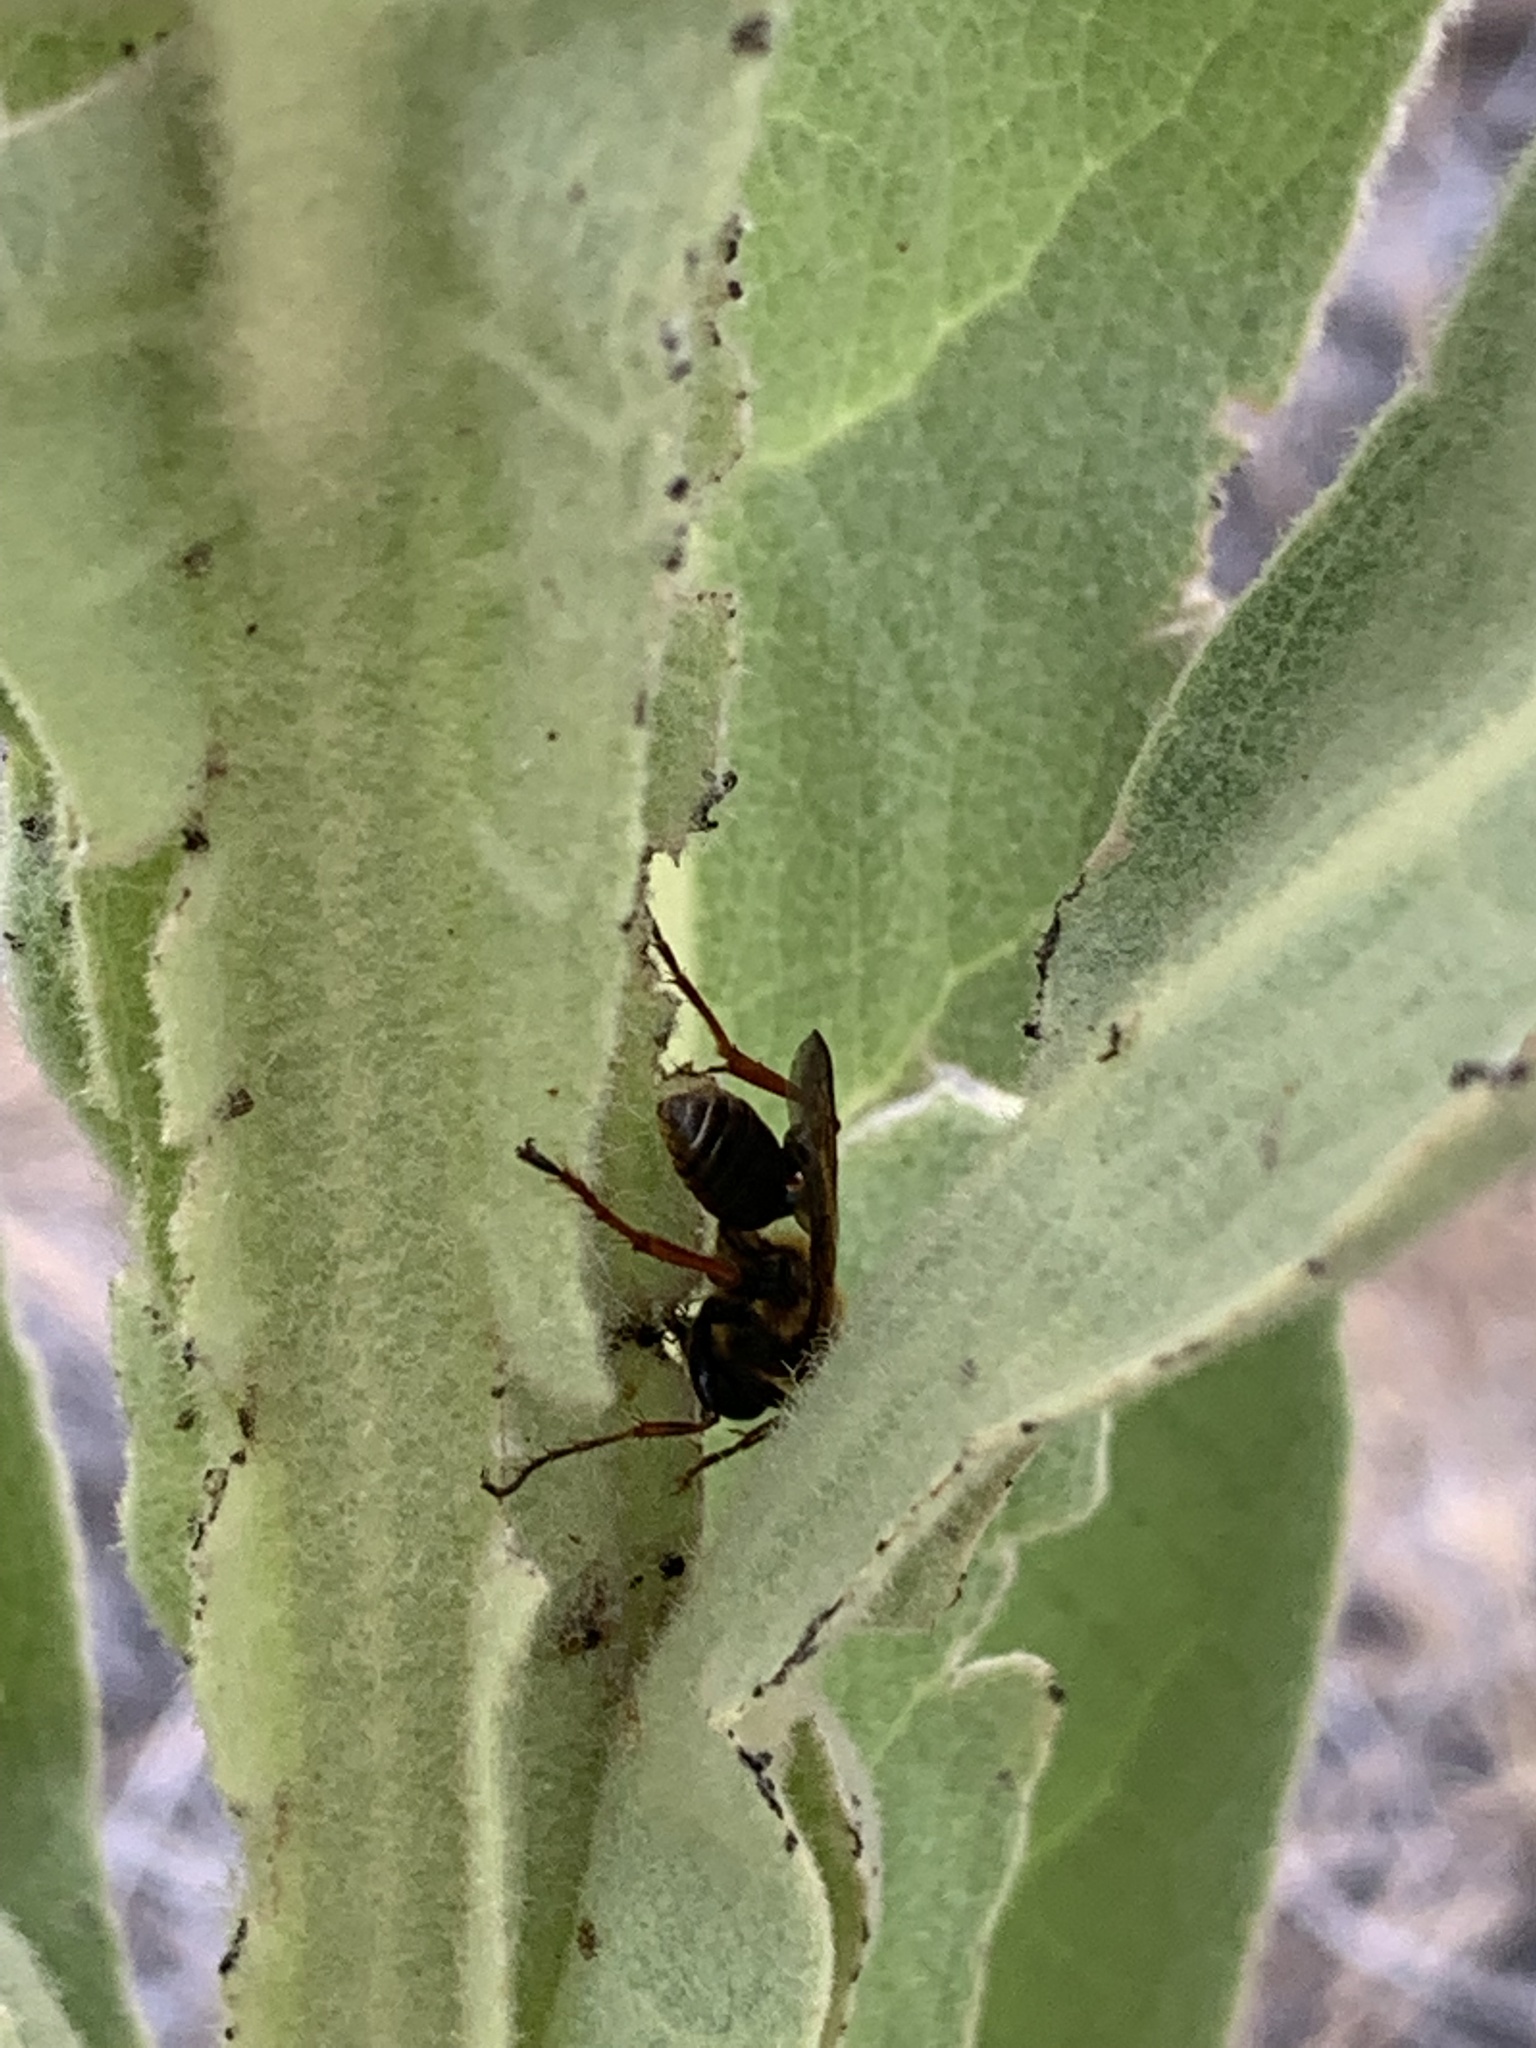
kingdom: Animalia
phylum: Arthropoda
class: Insecta
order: Hymenoptera
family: Sphecidae
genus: Isodontia
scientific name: Isodontia elegans
